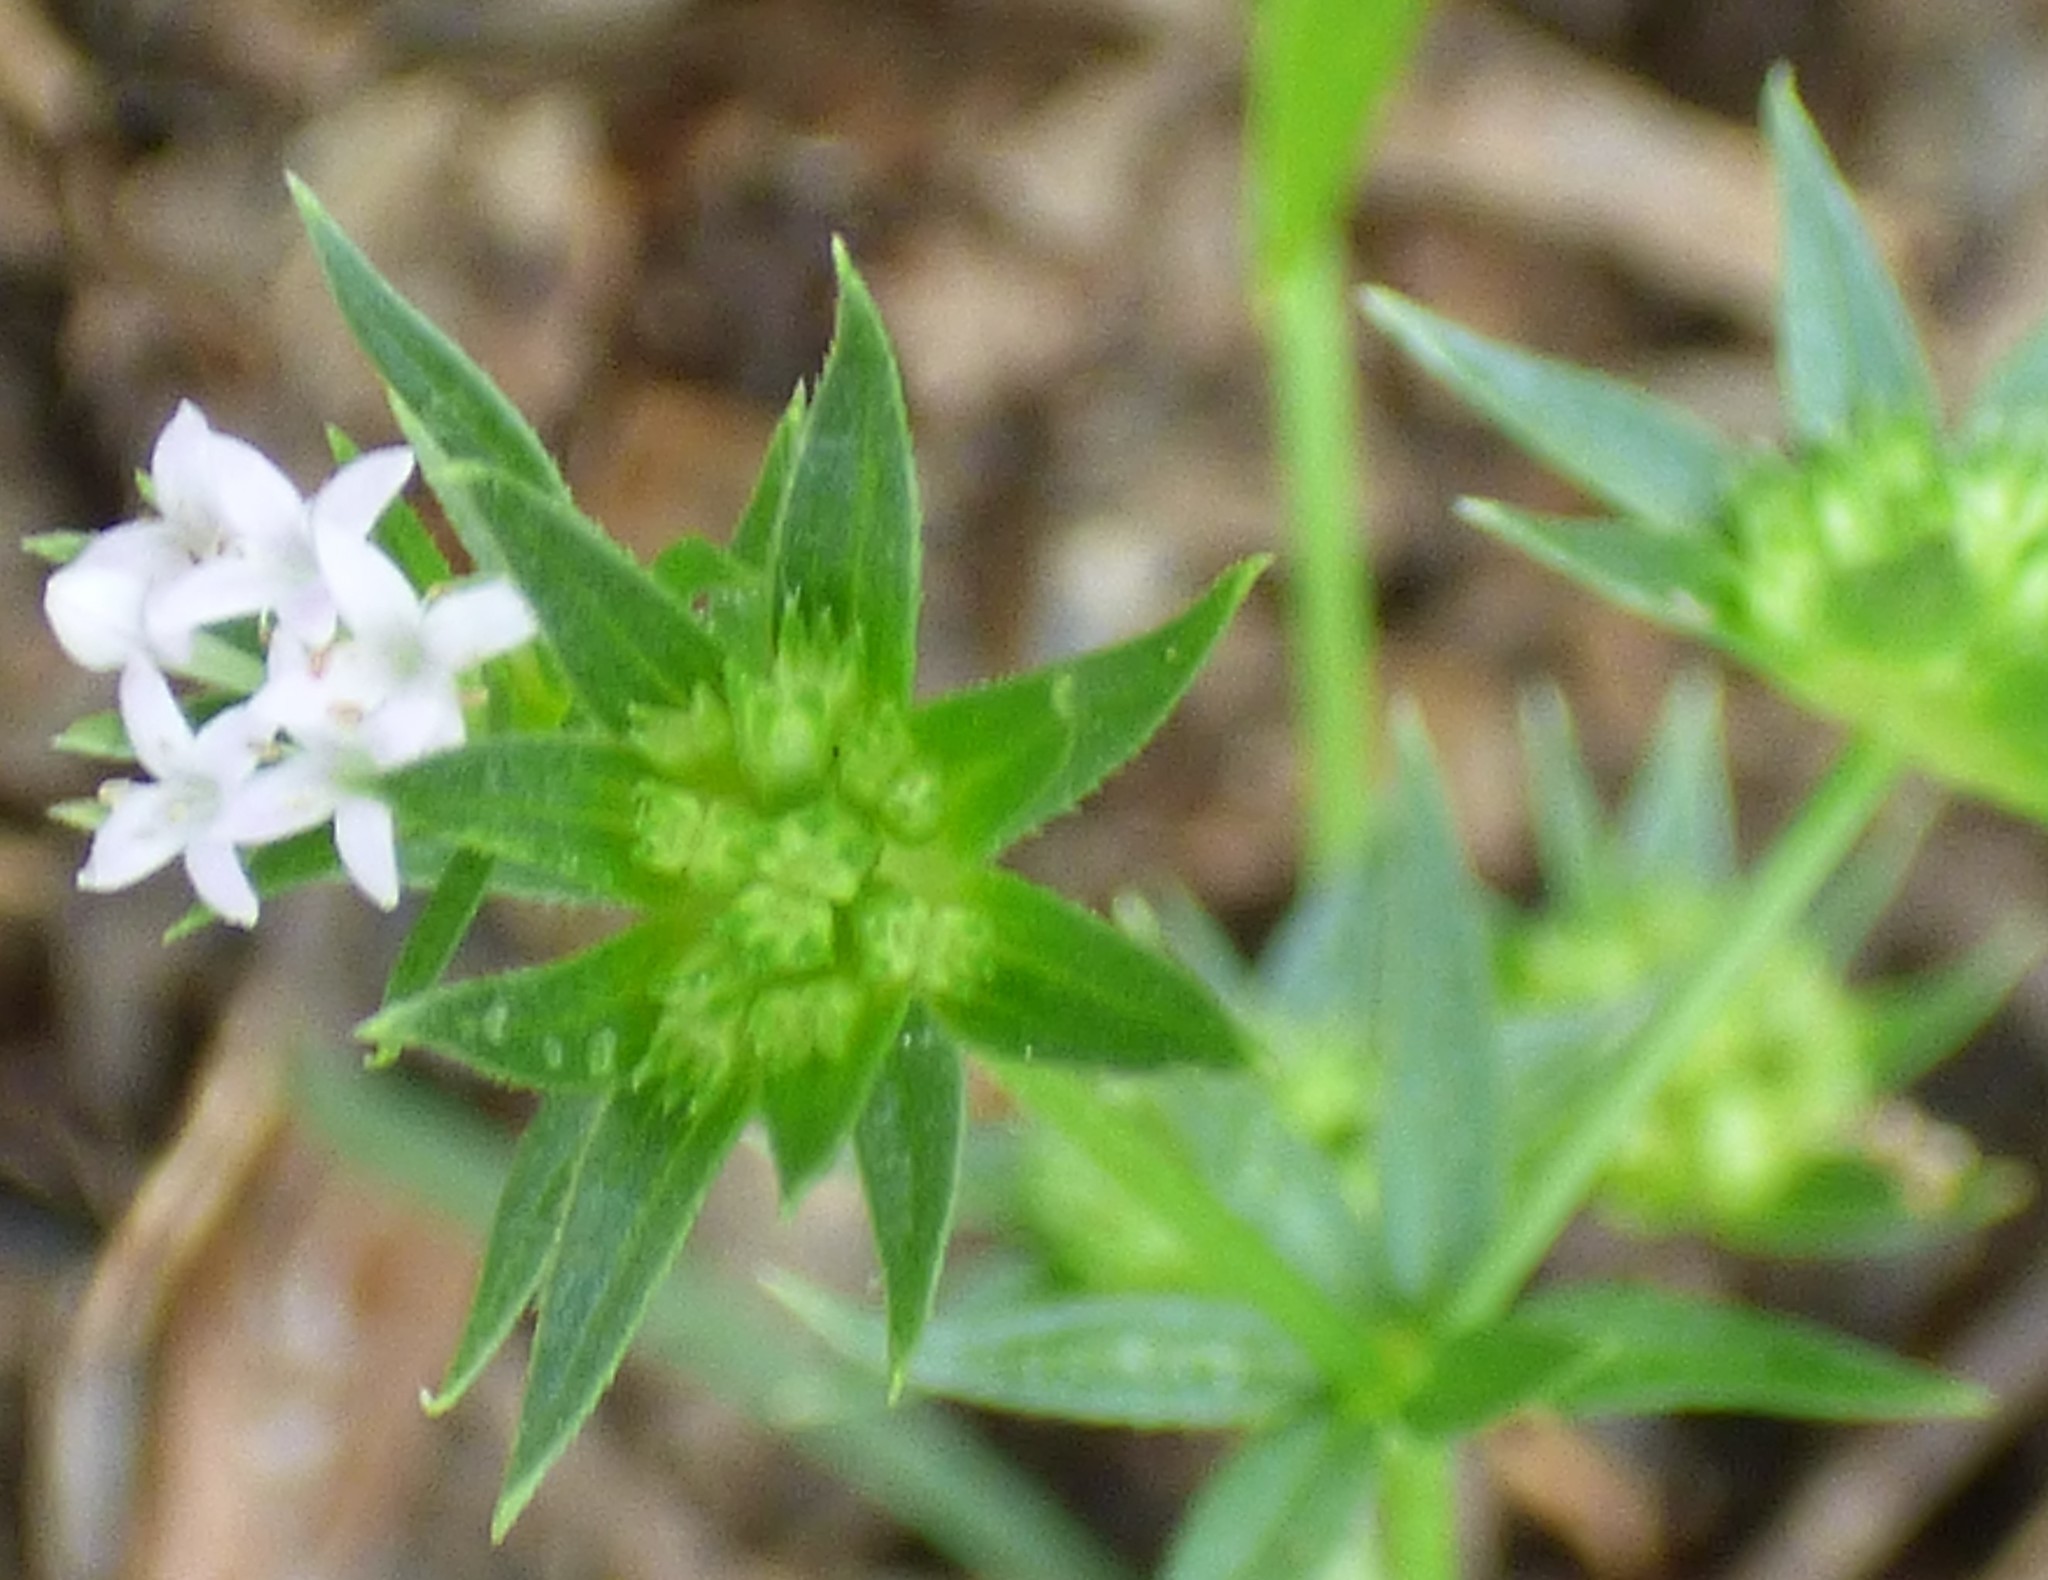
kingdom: Plantae
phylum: Tracheophyta
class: Magnoliopsida
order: Gentianales
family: Rubiaceae
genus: Sherardia
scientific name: Sherardia arvensis
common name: Field madder
